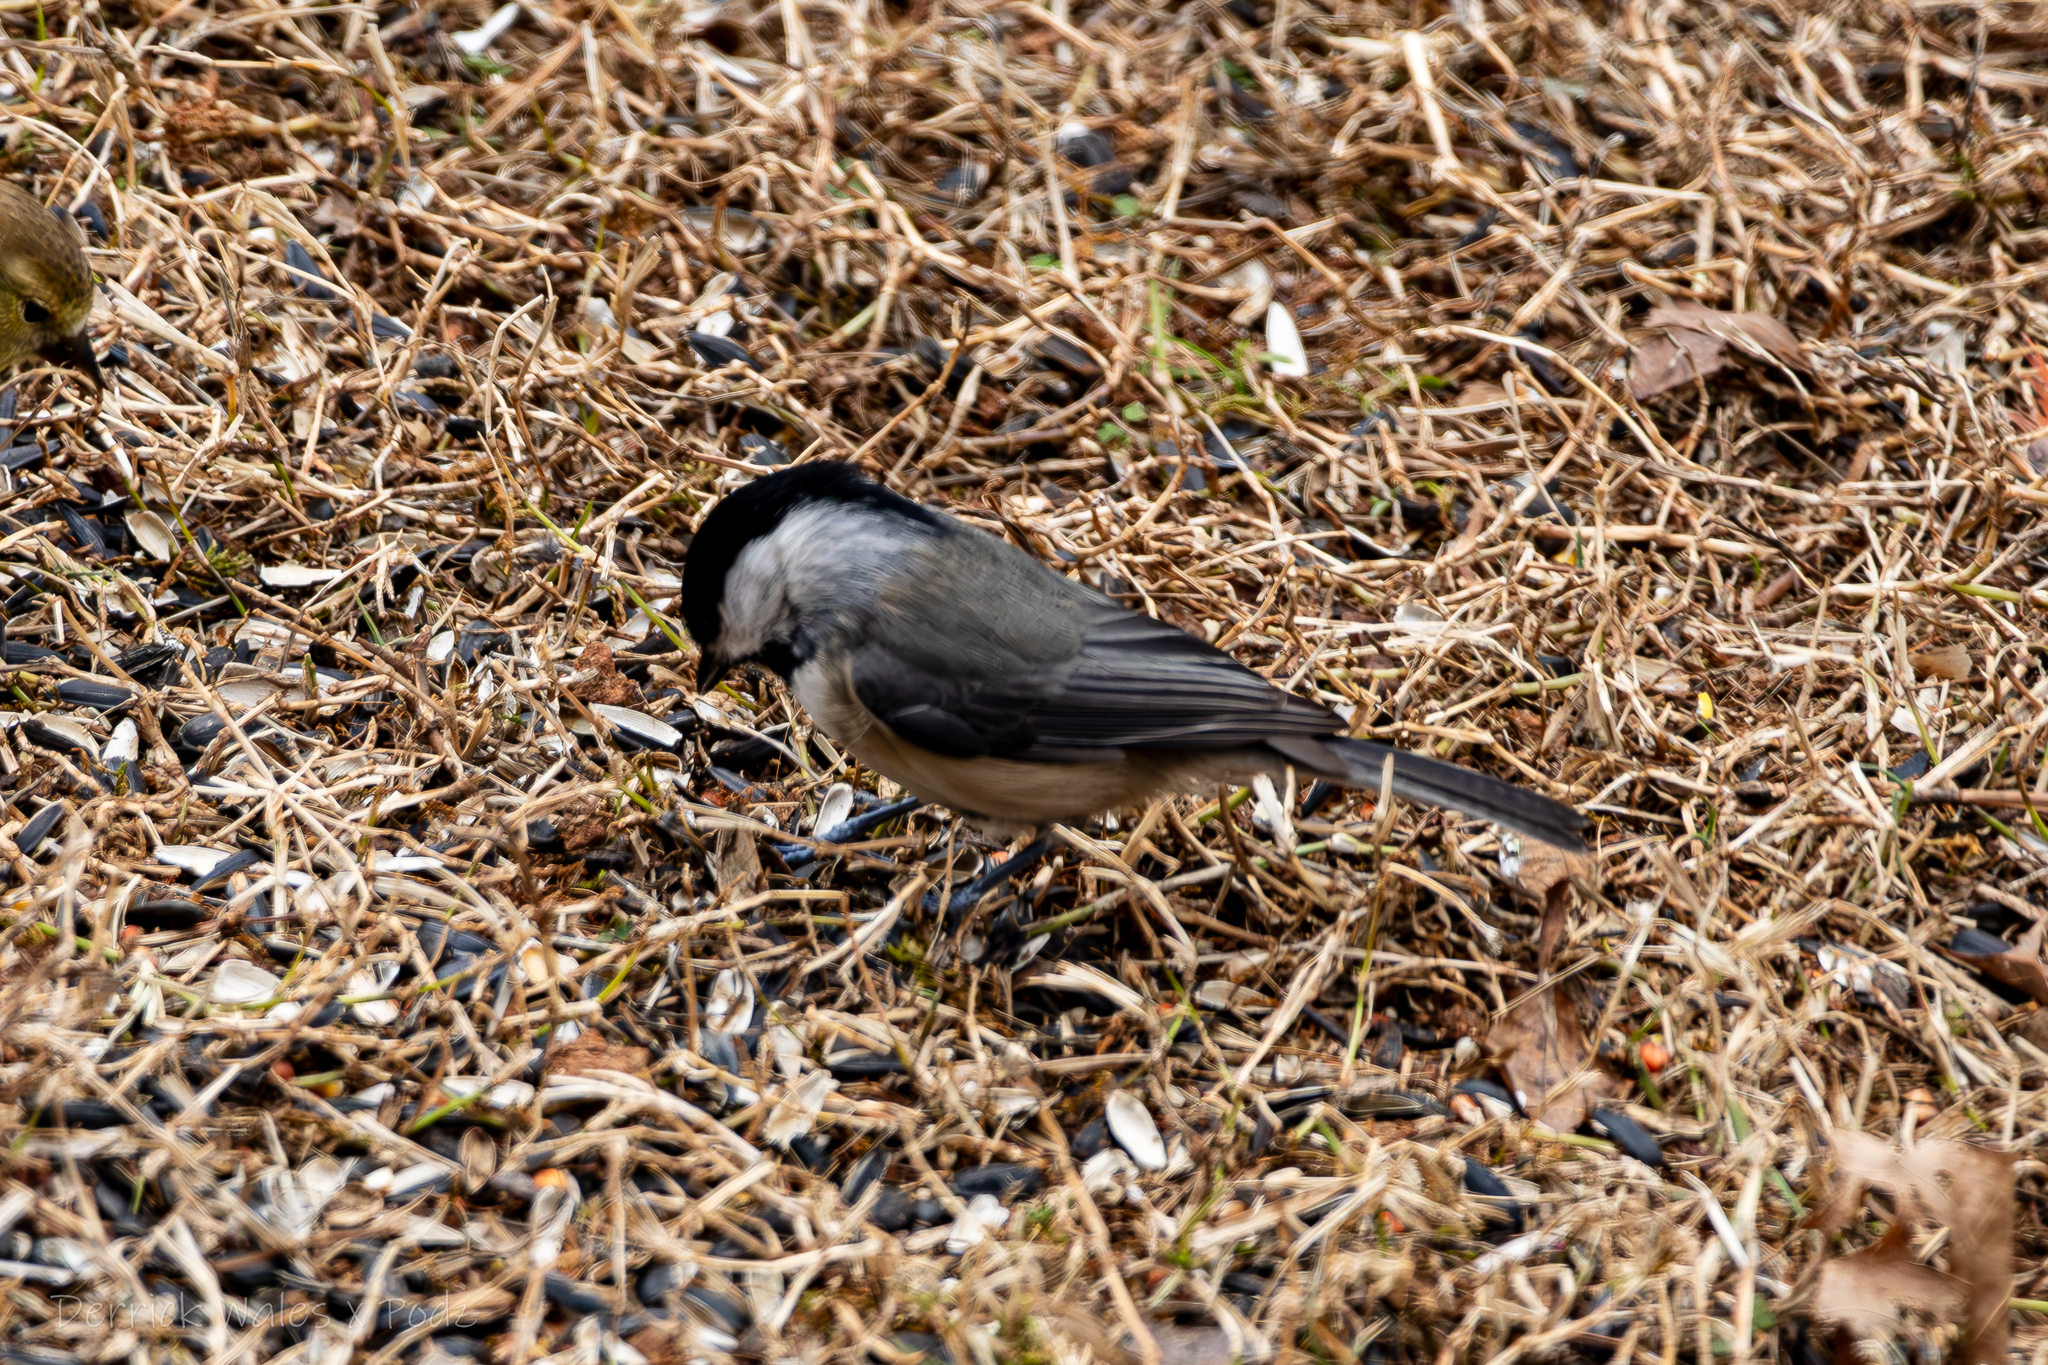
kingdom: Animalia
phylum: Chordata
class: Aves
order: Passeriformes
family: Paridae
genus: Poecile
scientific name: Poecile carolinensis
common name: Carolina chickadee
